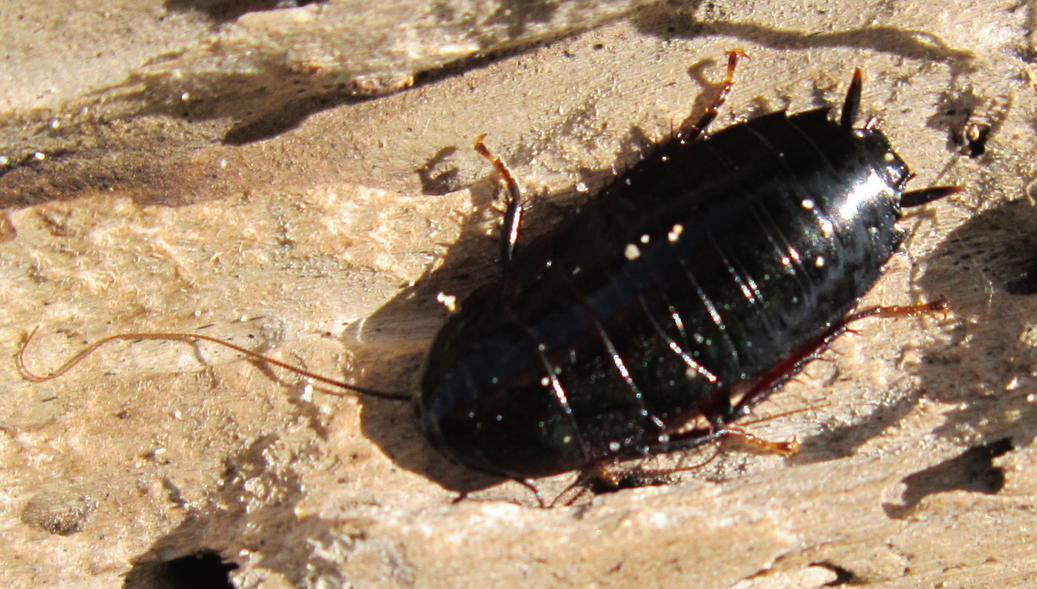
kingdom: Animalia
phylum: Arthropoda
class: Insecta
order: Blattodea
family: Blattidae
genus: Maoriblatta
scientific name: Maoriblatta novaeseelandiae
